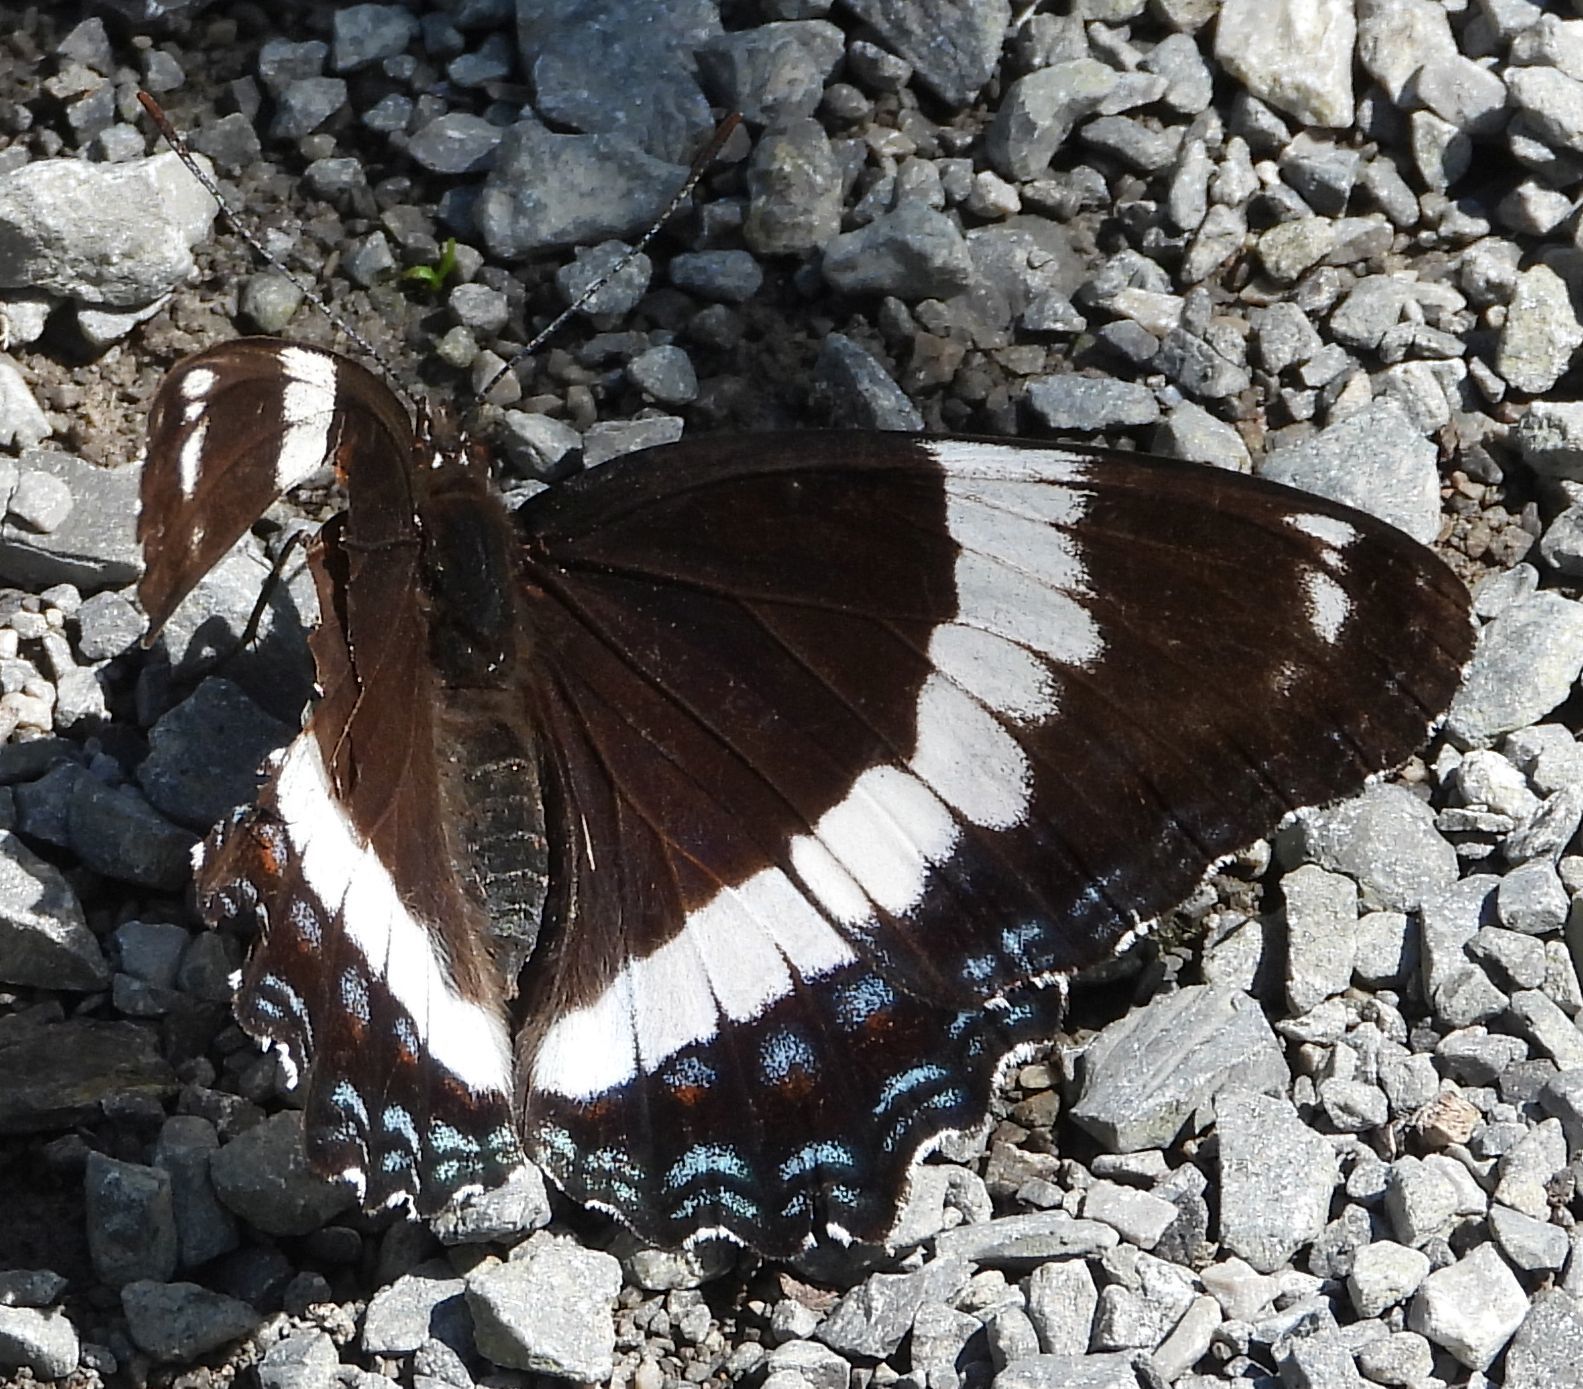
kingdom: Animalia
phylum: Arthropoda
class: Insecta
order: Lepidoptera
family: Nymphalidae
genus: Limenitis
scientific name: Limenitis arthemis
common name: Red-spotted admiral
